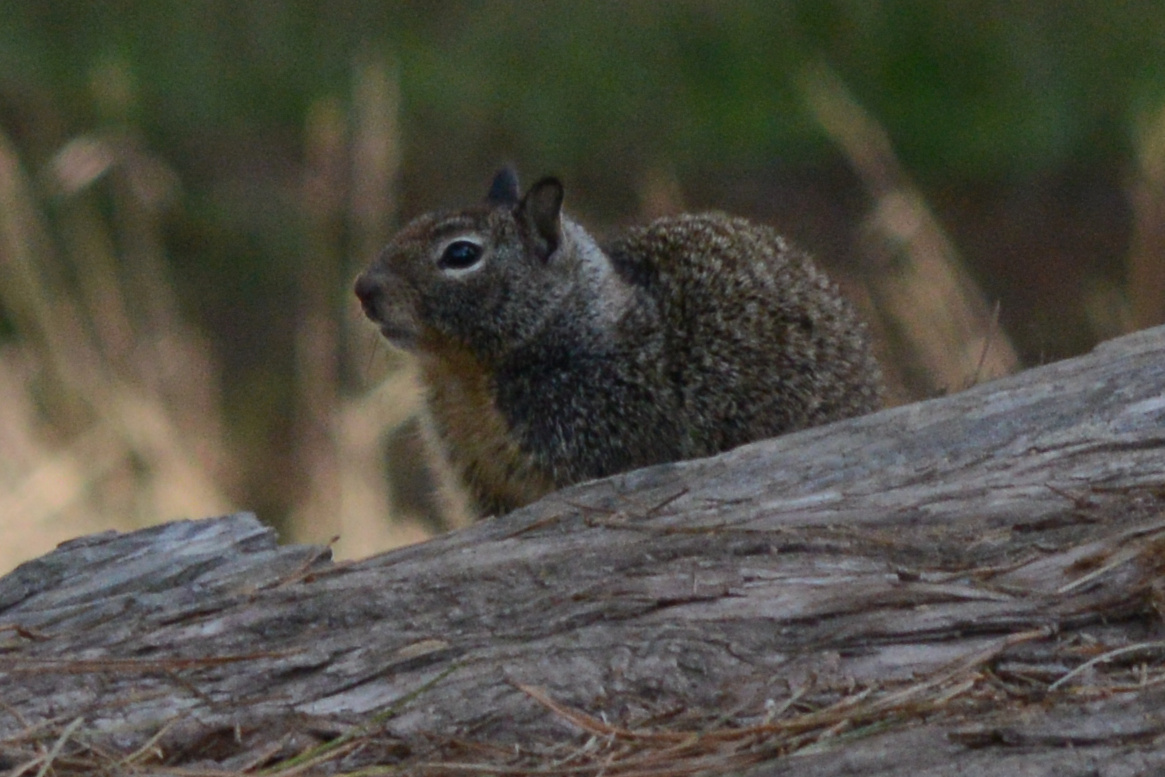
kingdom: Animalia
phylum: Chordata
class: Mammalia
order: Rodentia
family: Sciuridae
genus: Otospermophilus
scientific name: Otospermophilus beecheyi
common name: California ground squirrel
